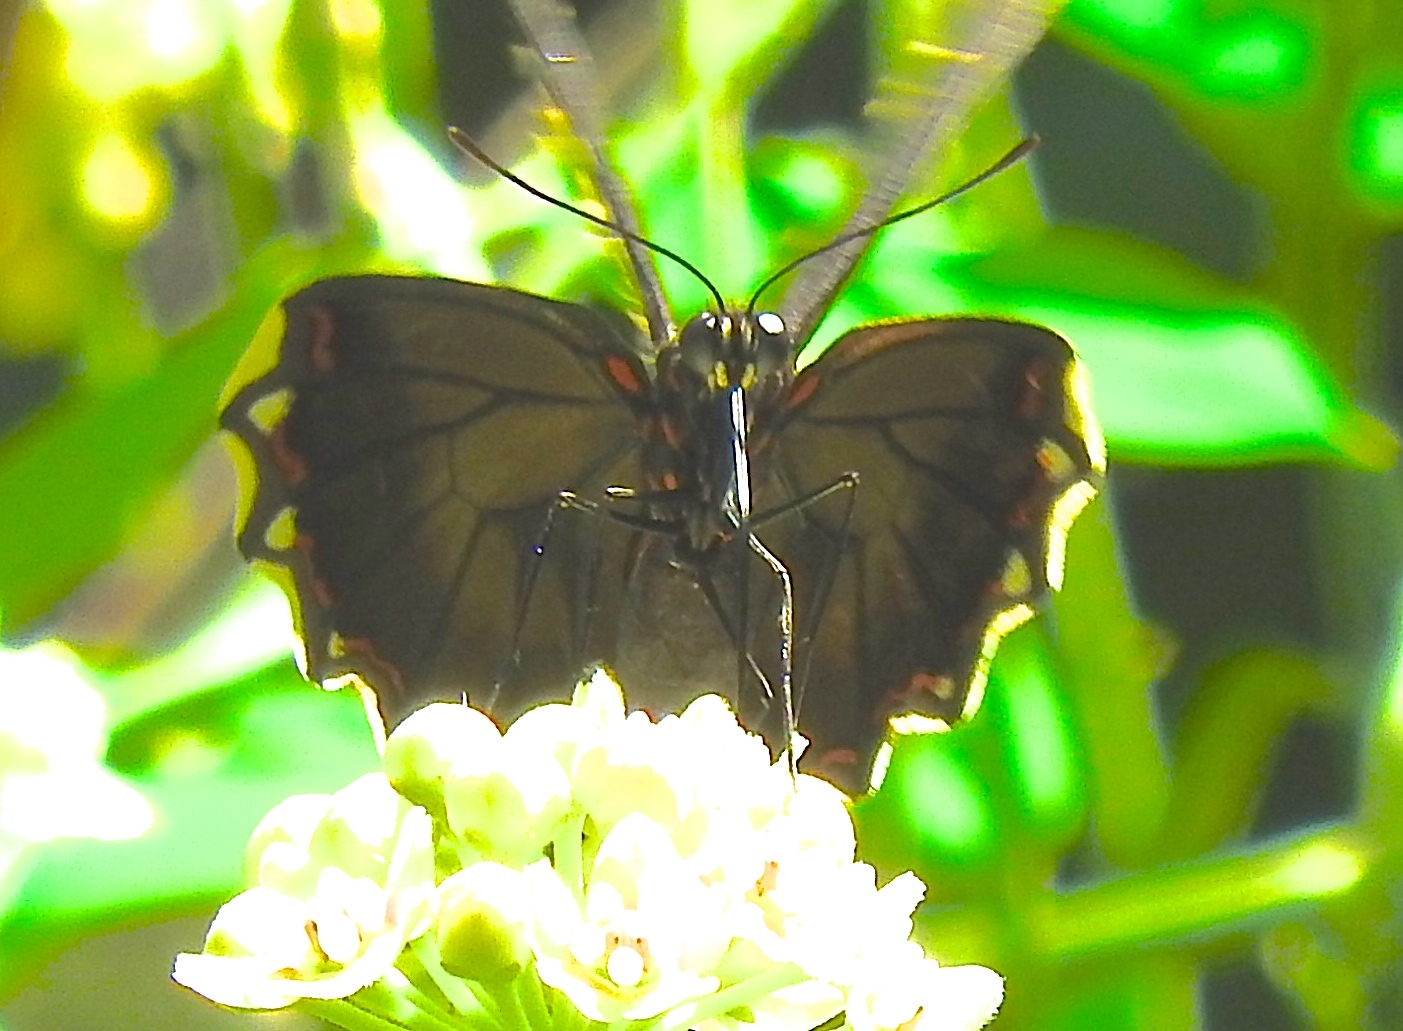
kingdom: Animalia
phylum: Arthropoda
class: Insecta
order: Lepidoptera
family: Papilionidae
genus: Battus
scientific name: Battus polydamas
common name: Polydamas swallowtail
